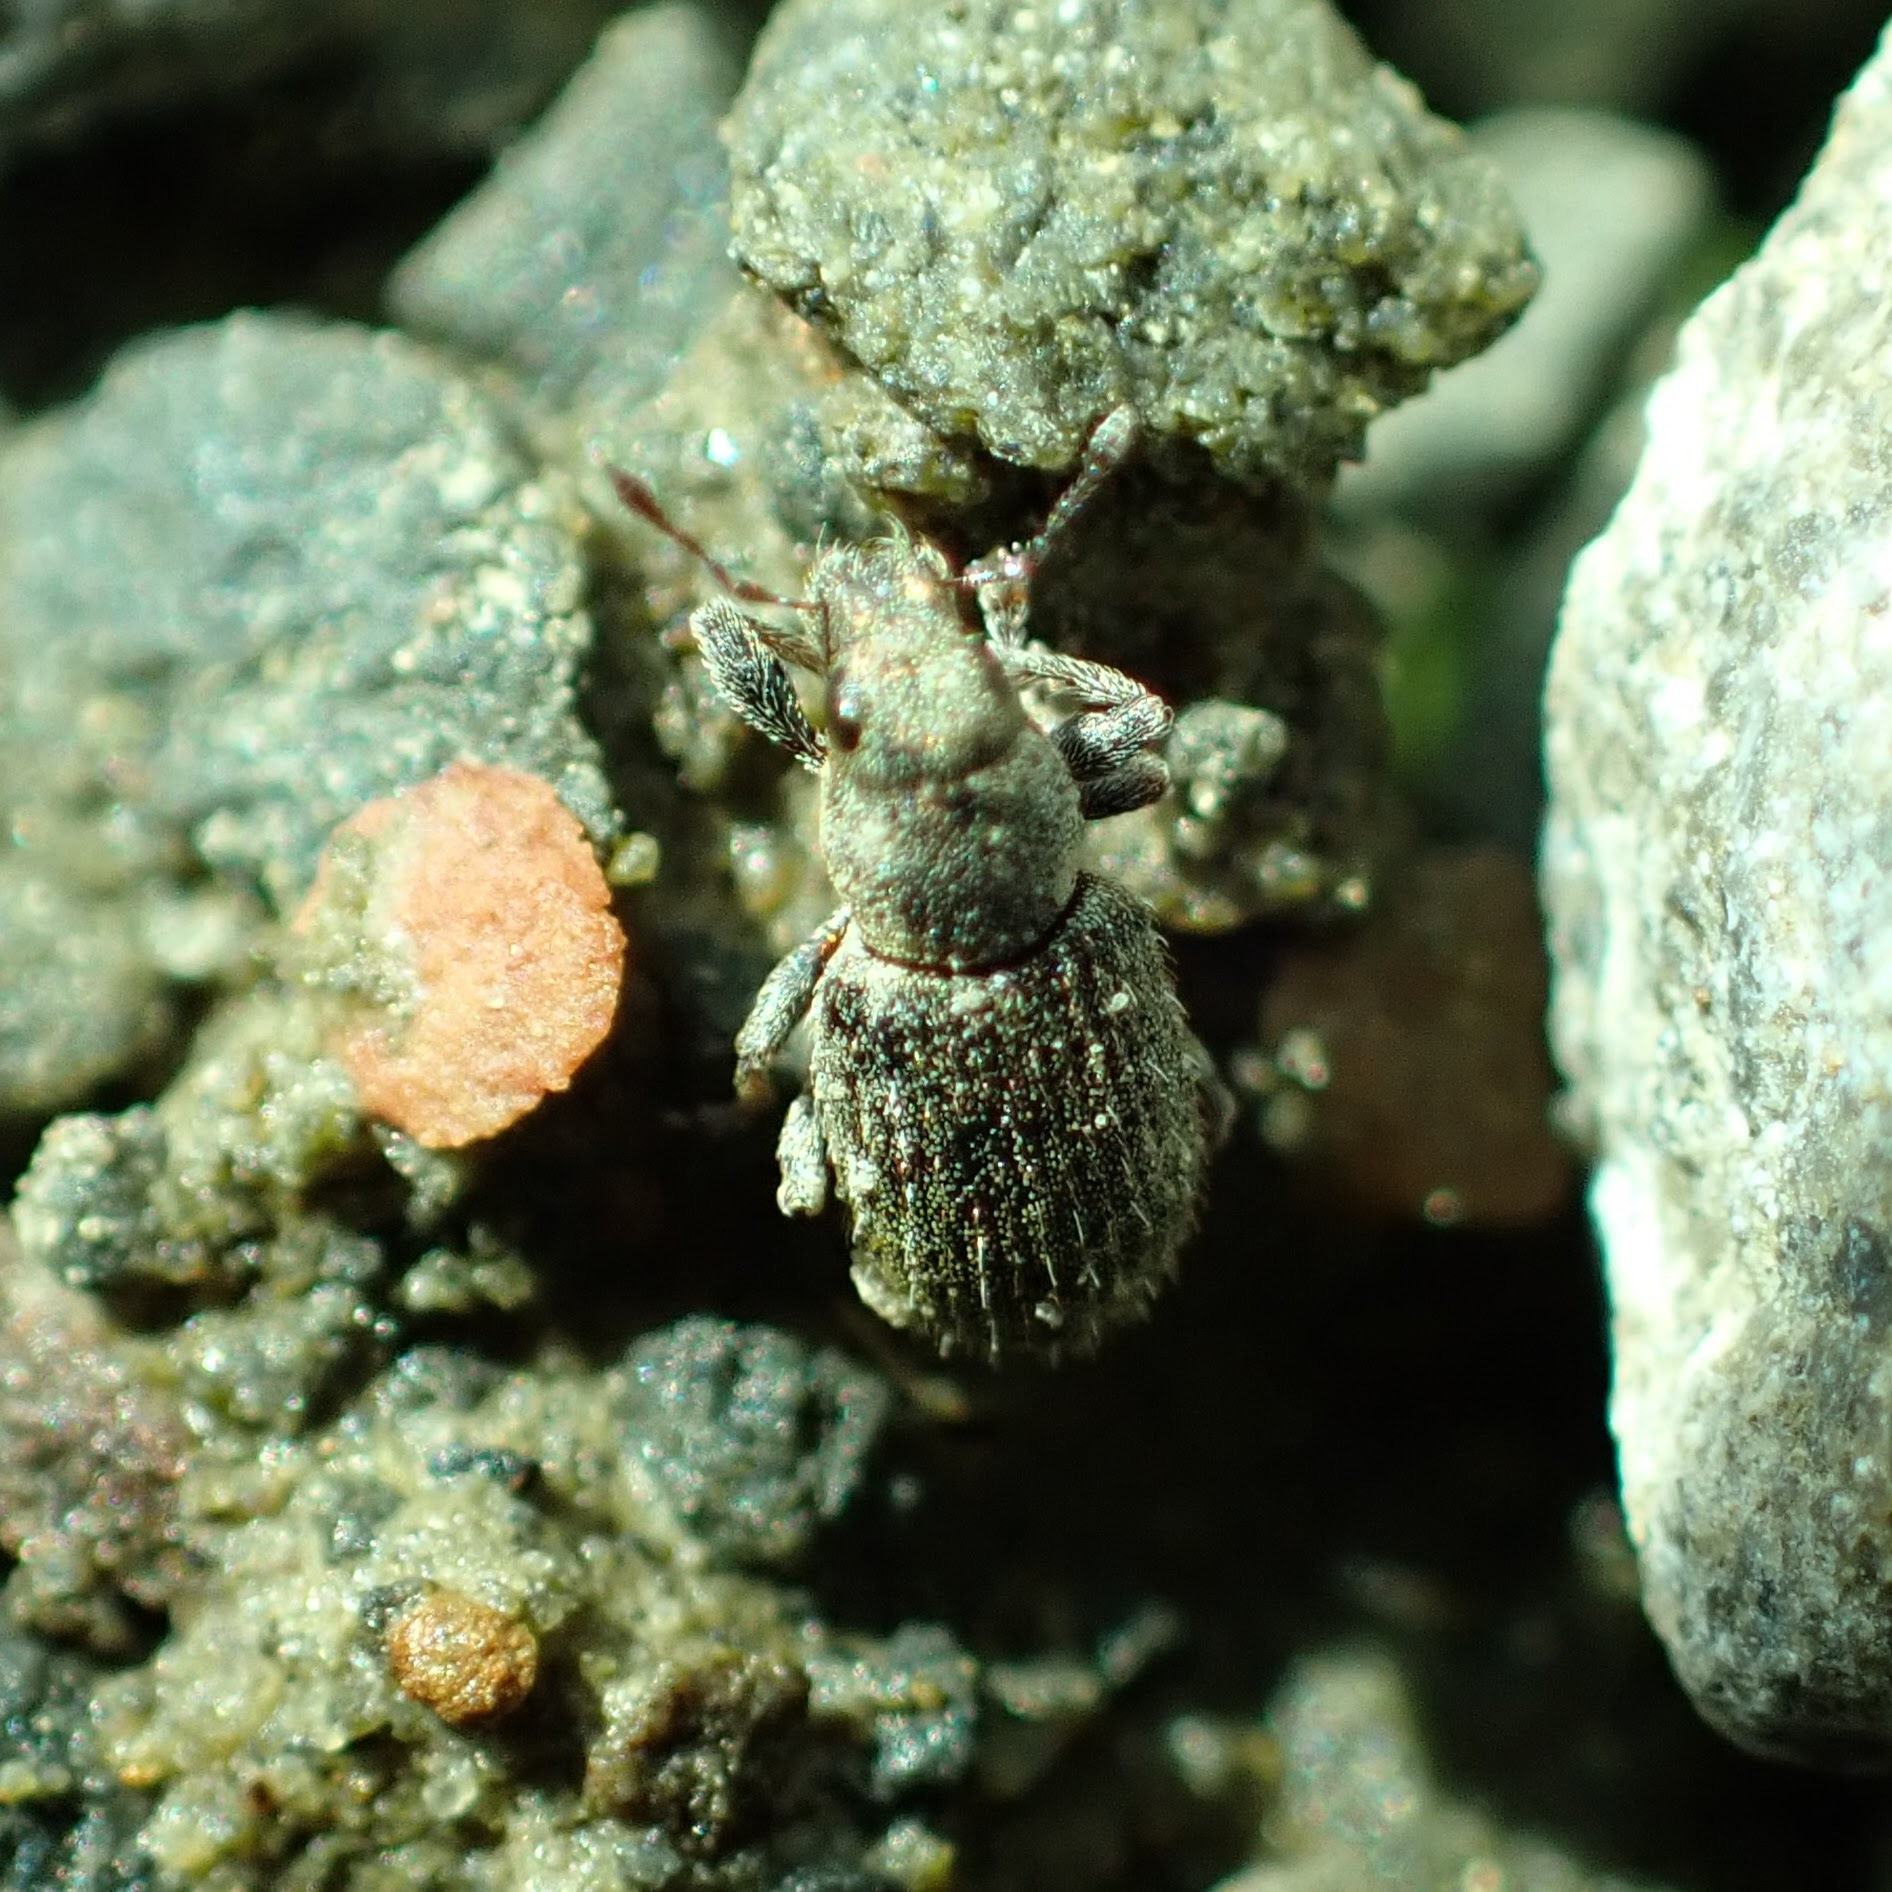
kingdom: Animalia
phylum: Arthropoda
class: Insecta
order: Coleoptera
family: Curculionidae
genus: Sitona
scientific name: Sitona hispidulus
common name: Clover weevil
